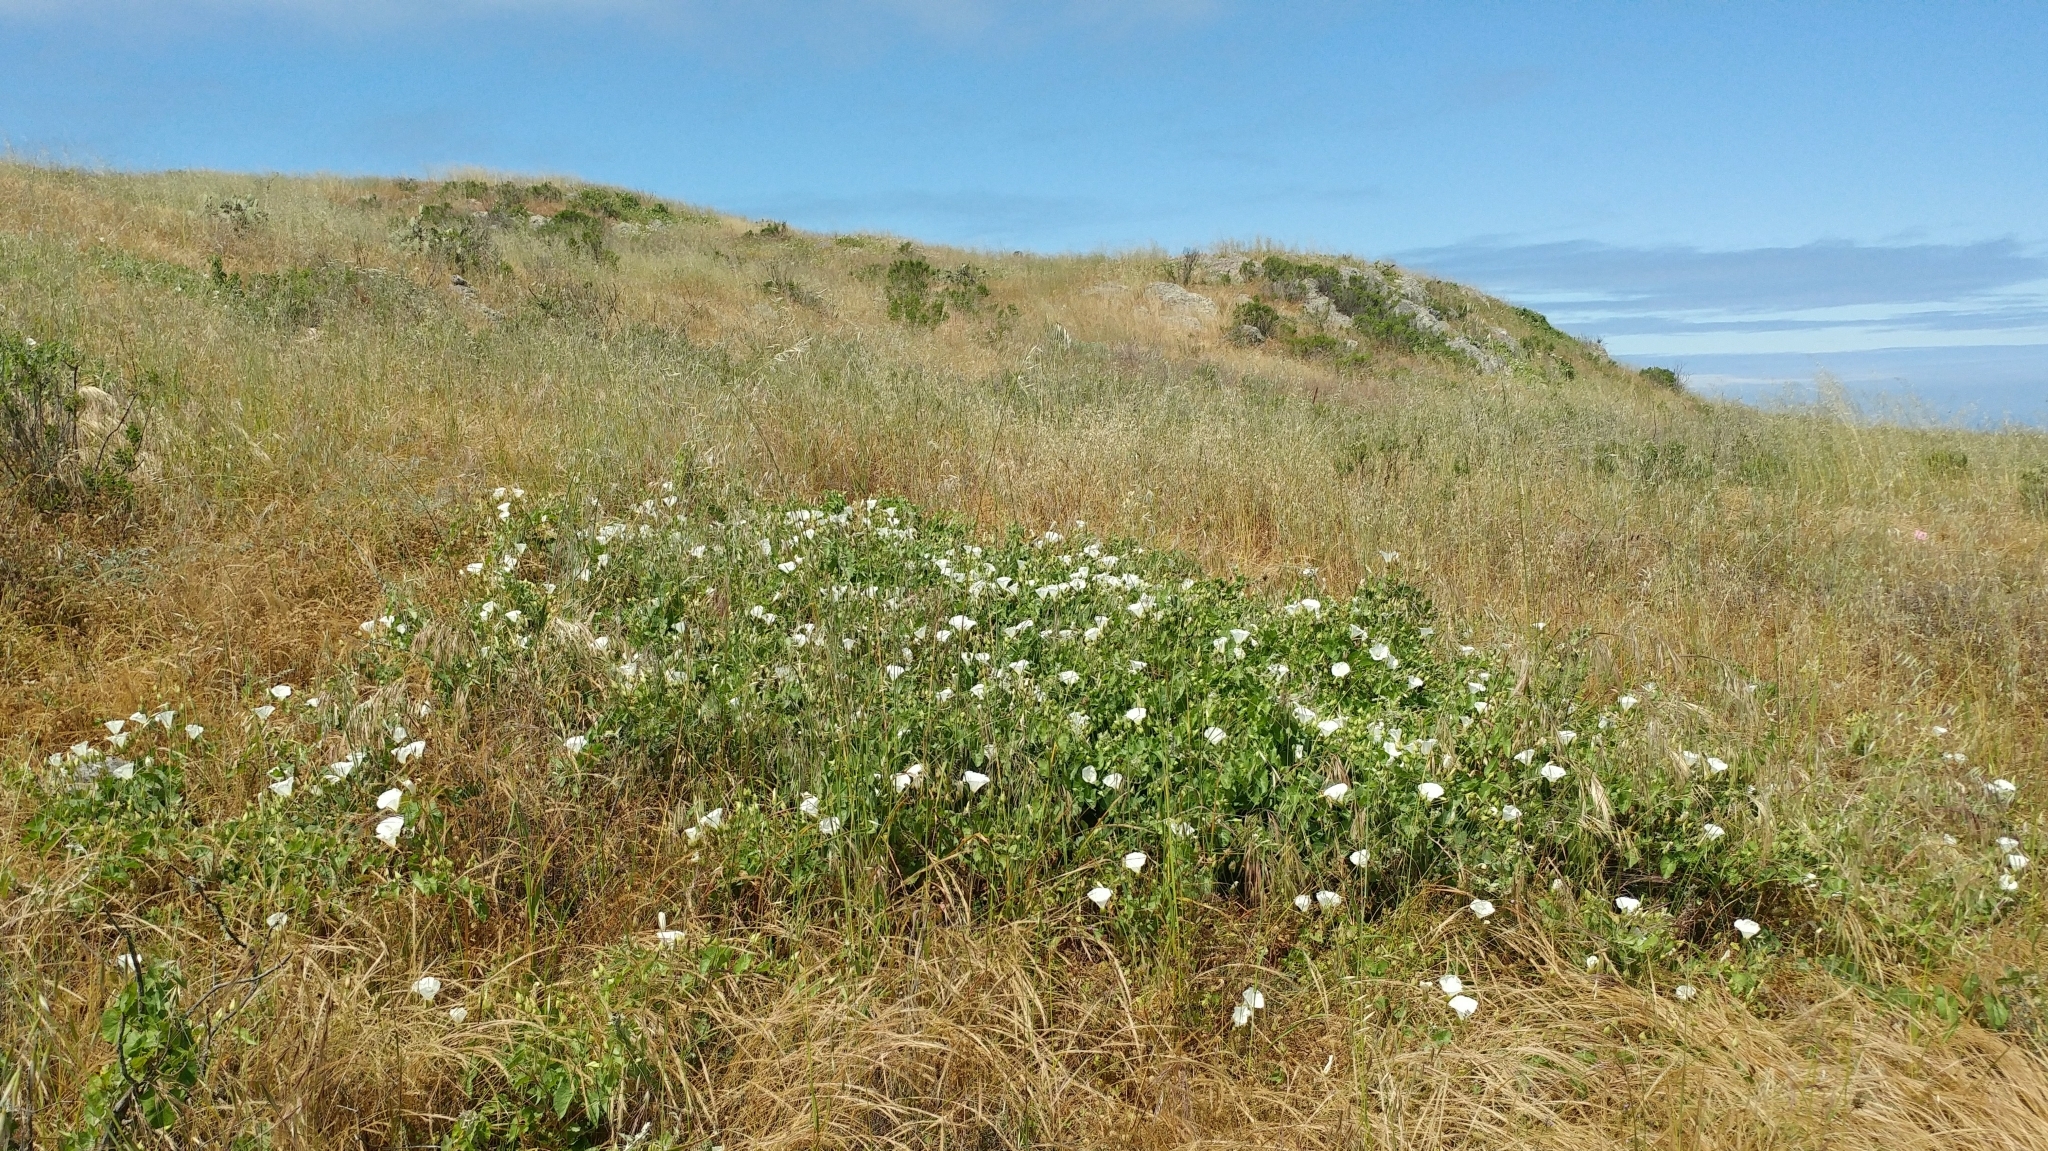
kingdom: Plantae
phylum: Tracheophyta
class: Magnoliopsida
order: Solanales
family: Convolvulaceae
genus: Calystegia
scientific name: Calystegia macrostegia
